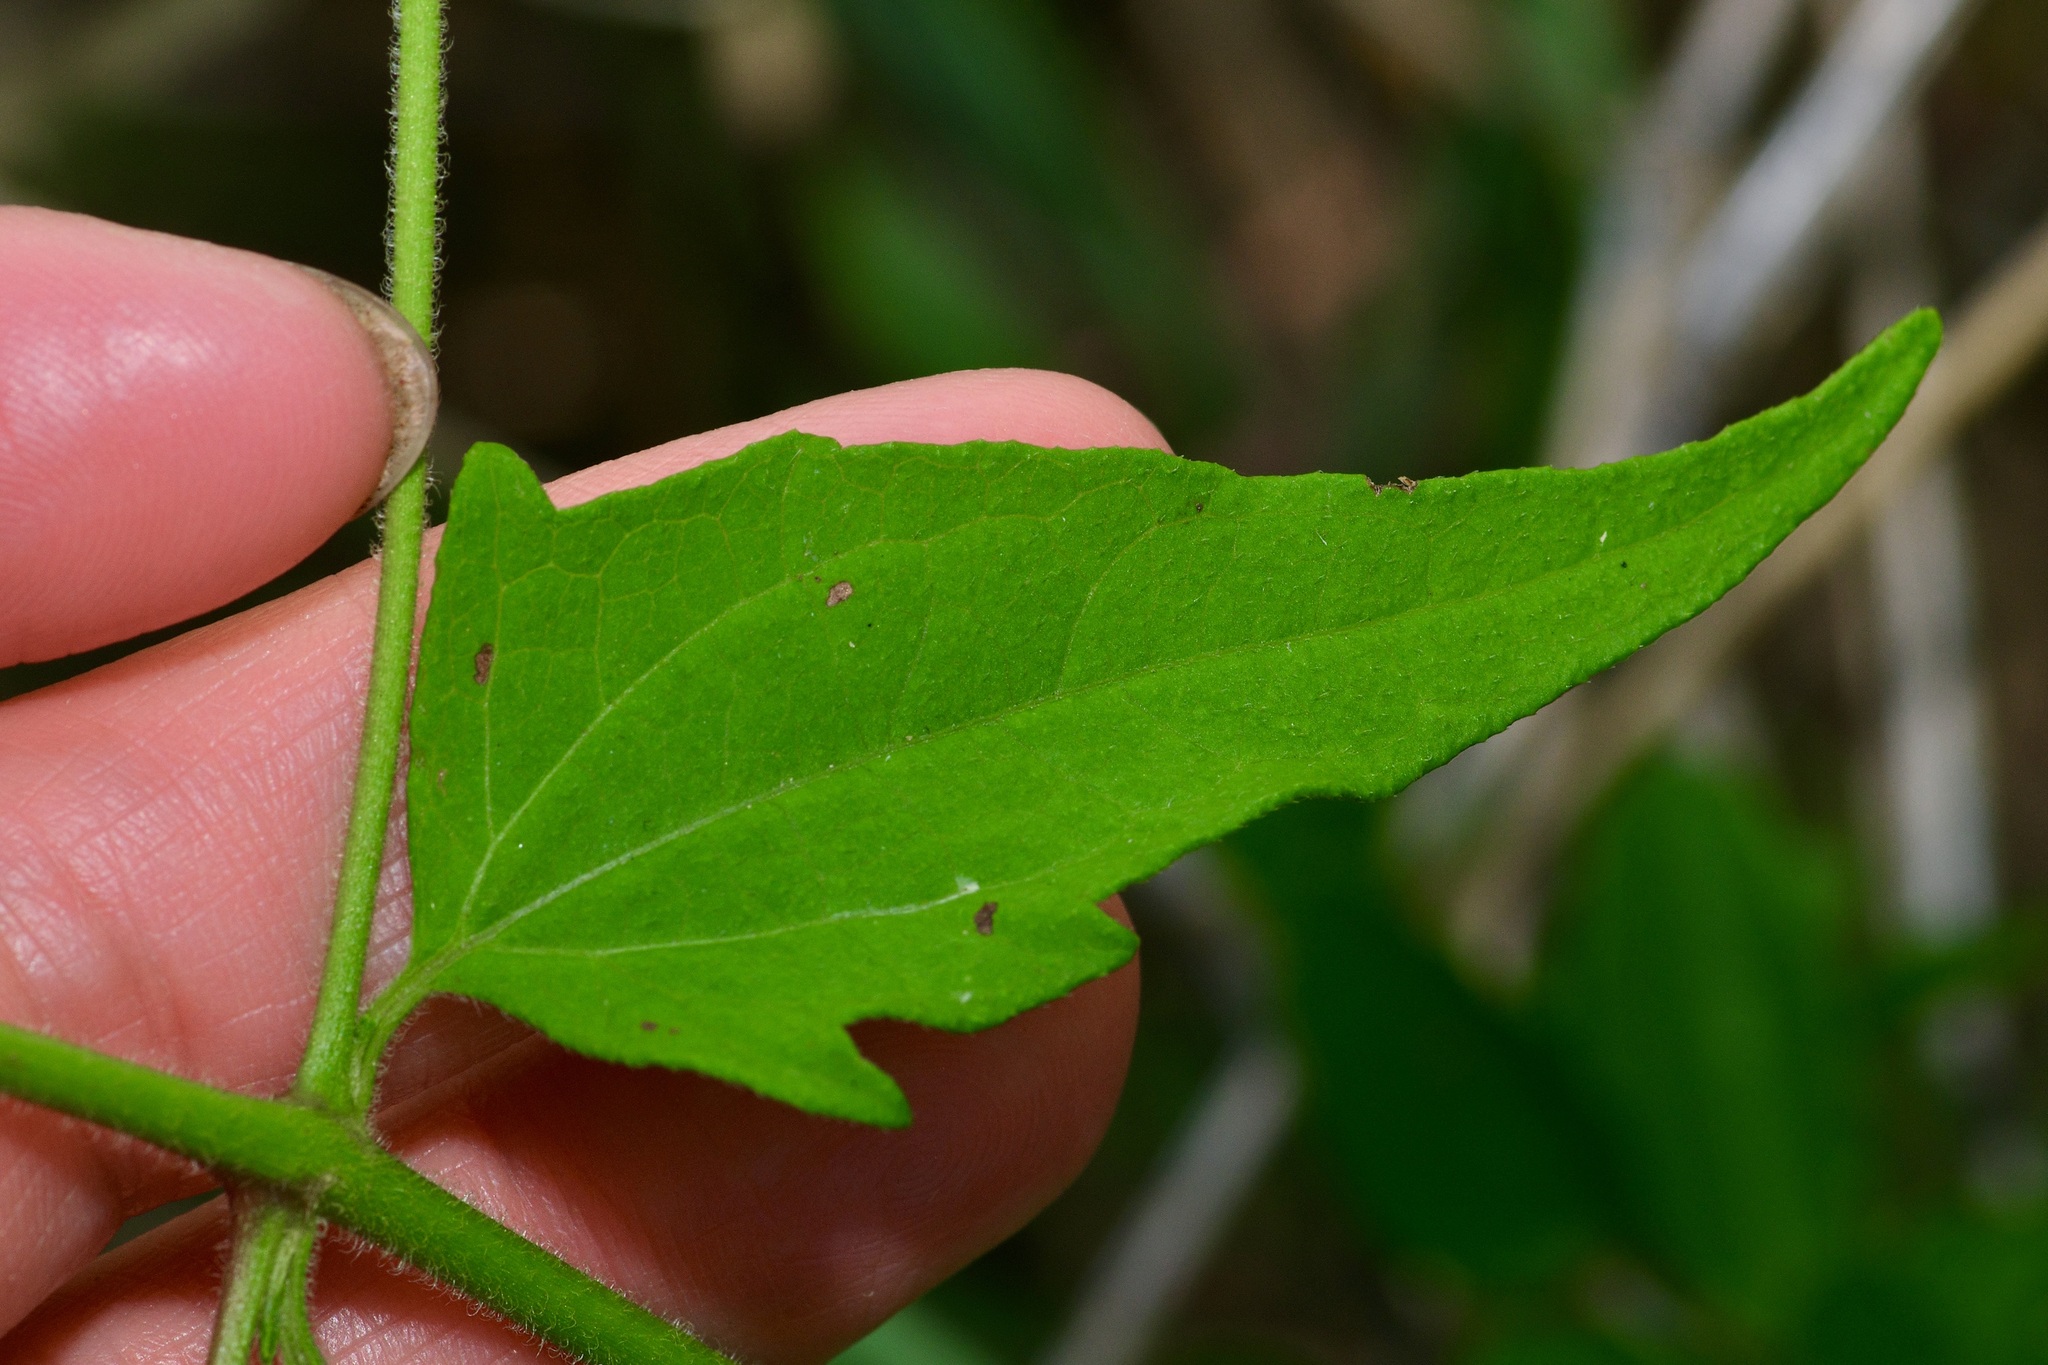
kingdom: Plantae
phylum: Tracheophyta
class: Magnoliopsida
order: Asterales
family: Asteraceae
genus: Chromolaena
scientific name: Chromolaena odorata
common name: Siamweed
